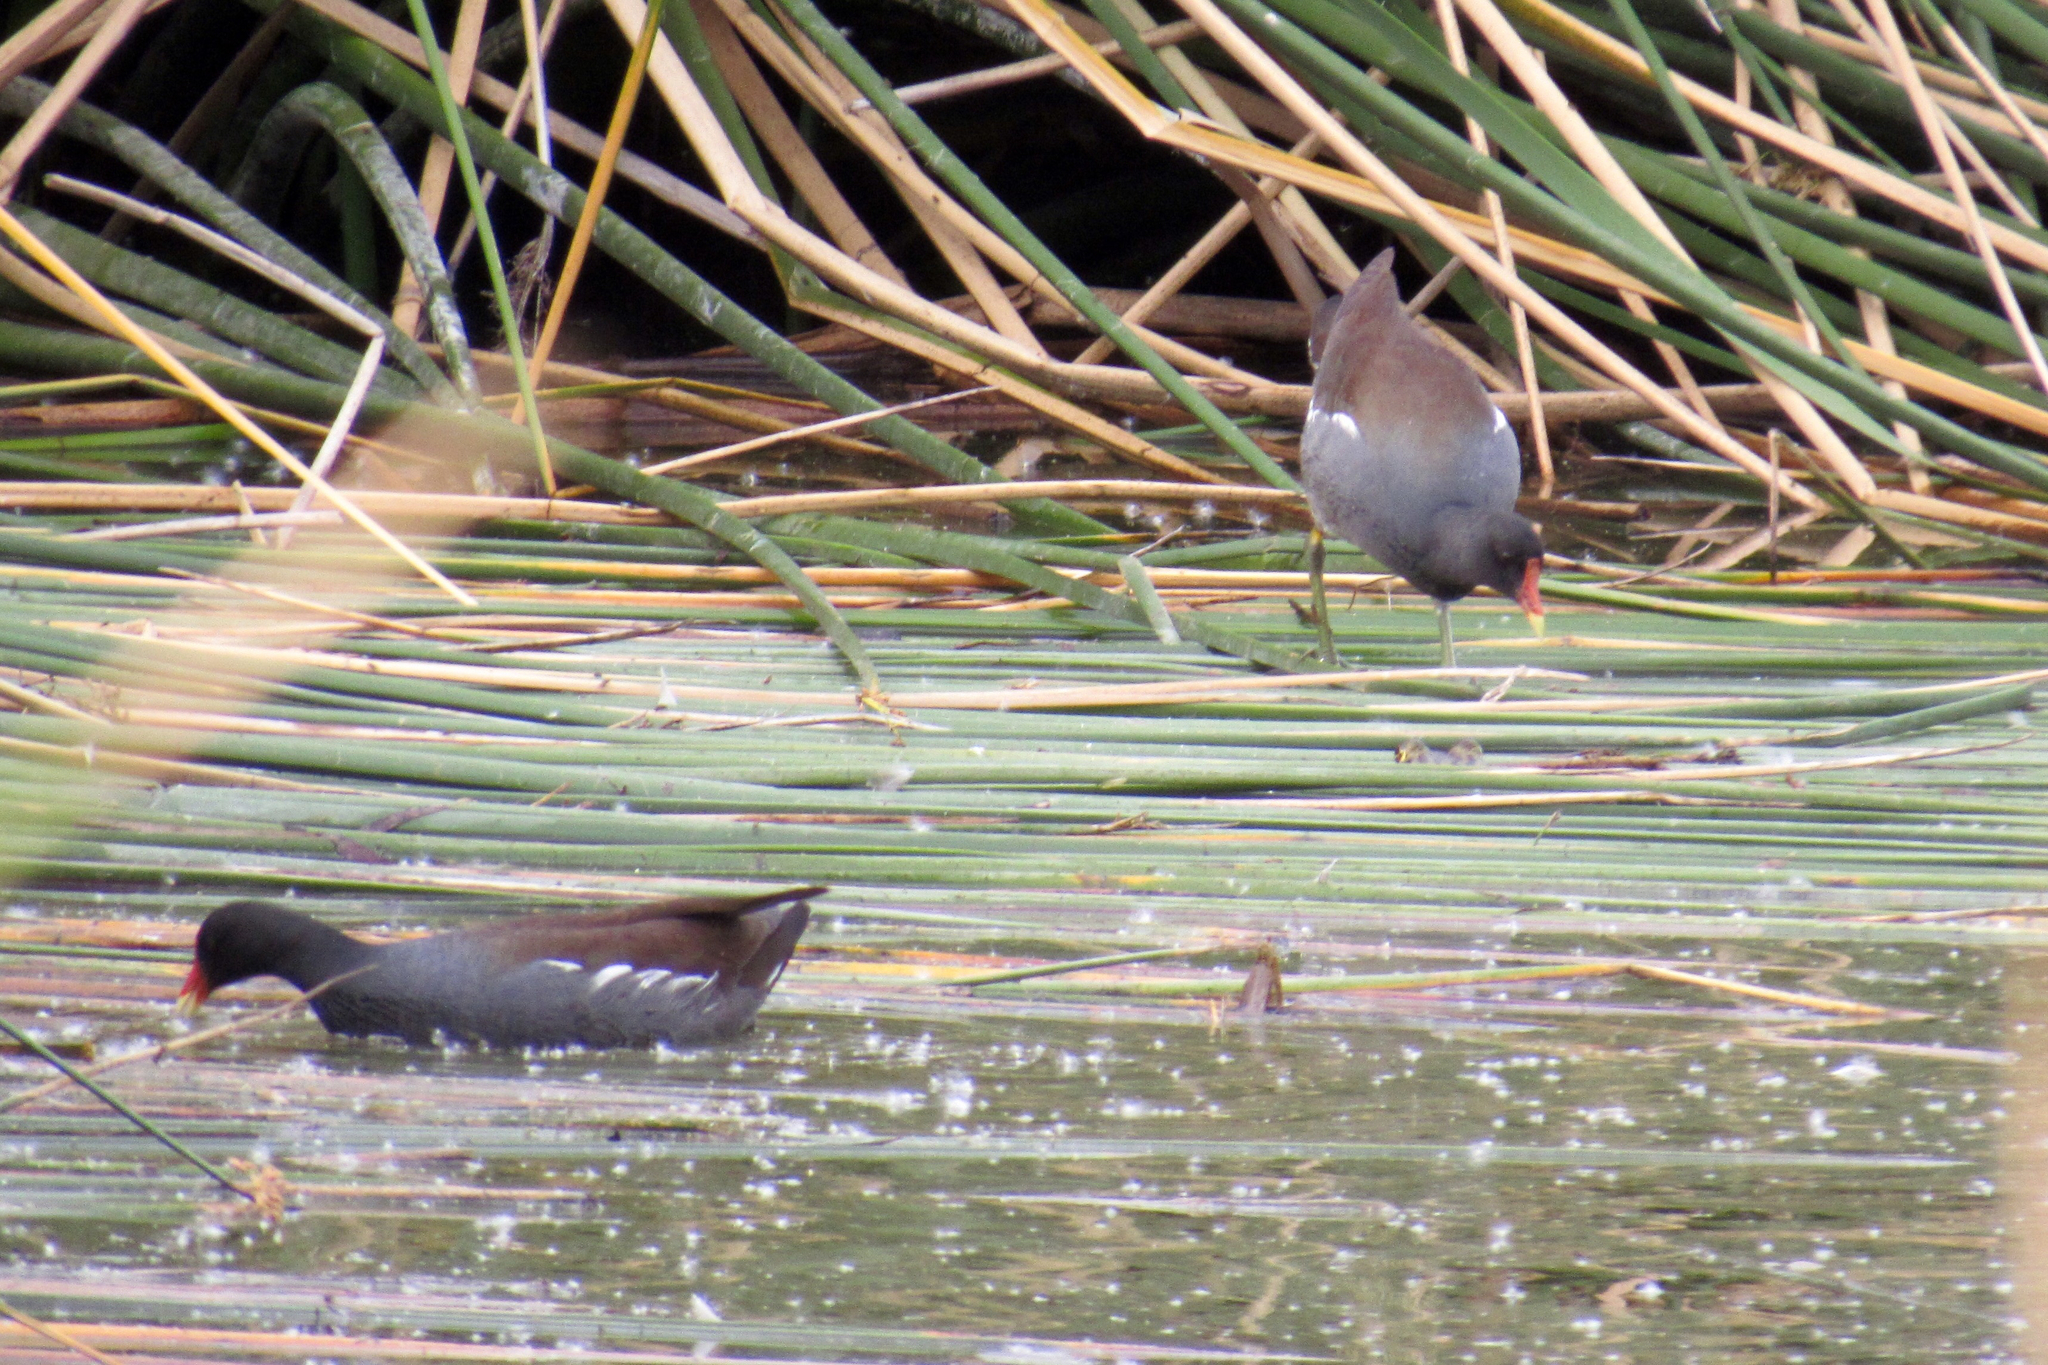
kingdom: Animalia
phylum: Chordata
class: Aves
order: Gruiformes
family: Rallidae
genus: Gallinula
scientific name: Gallinula chloropus
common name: Common moorhen
